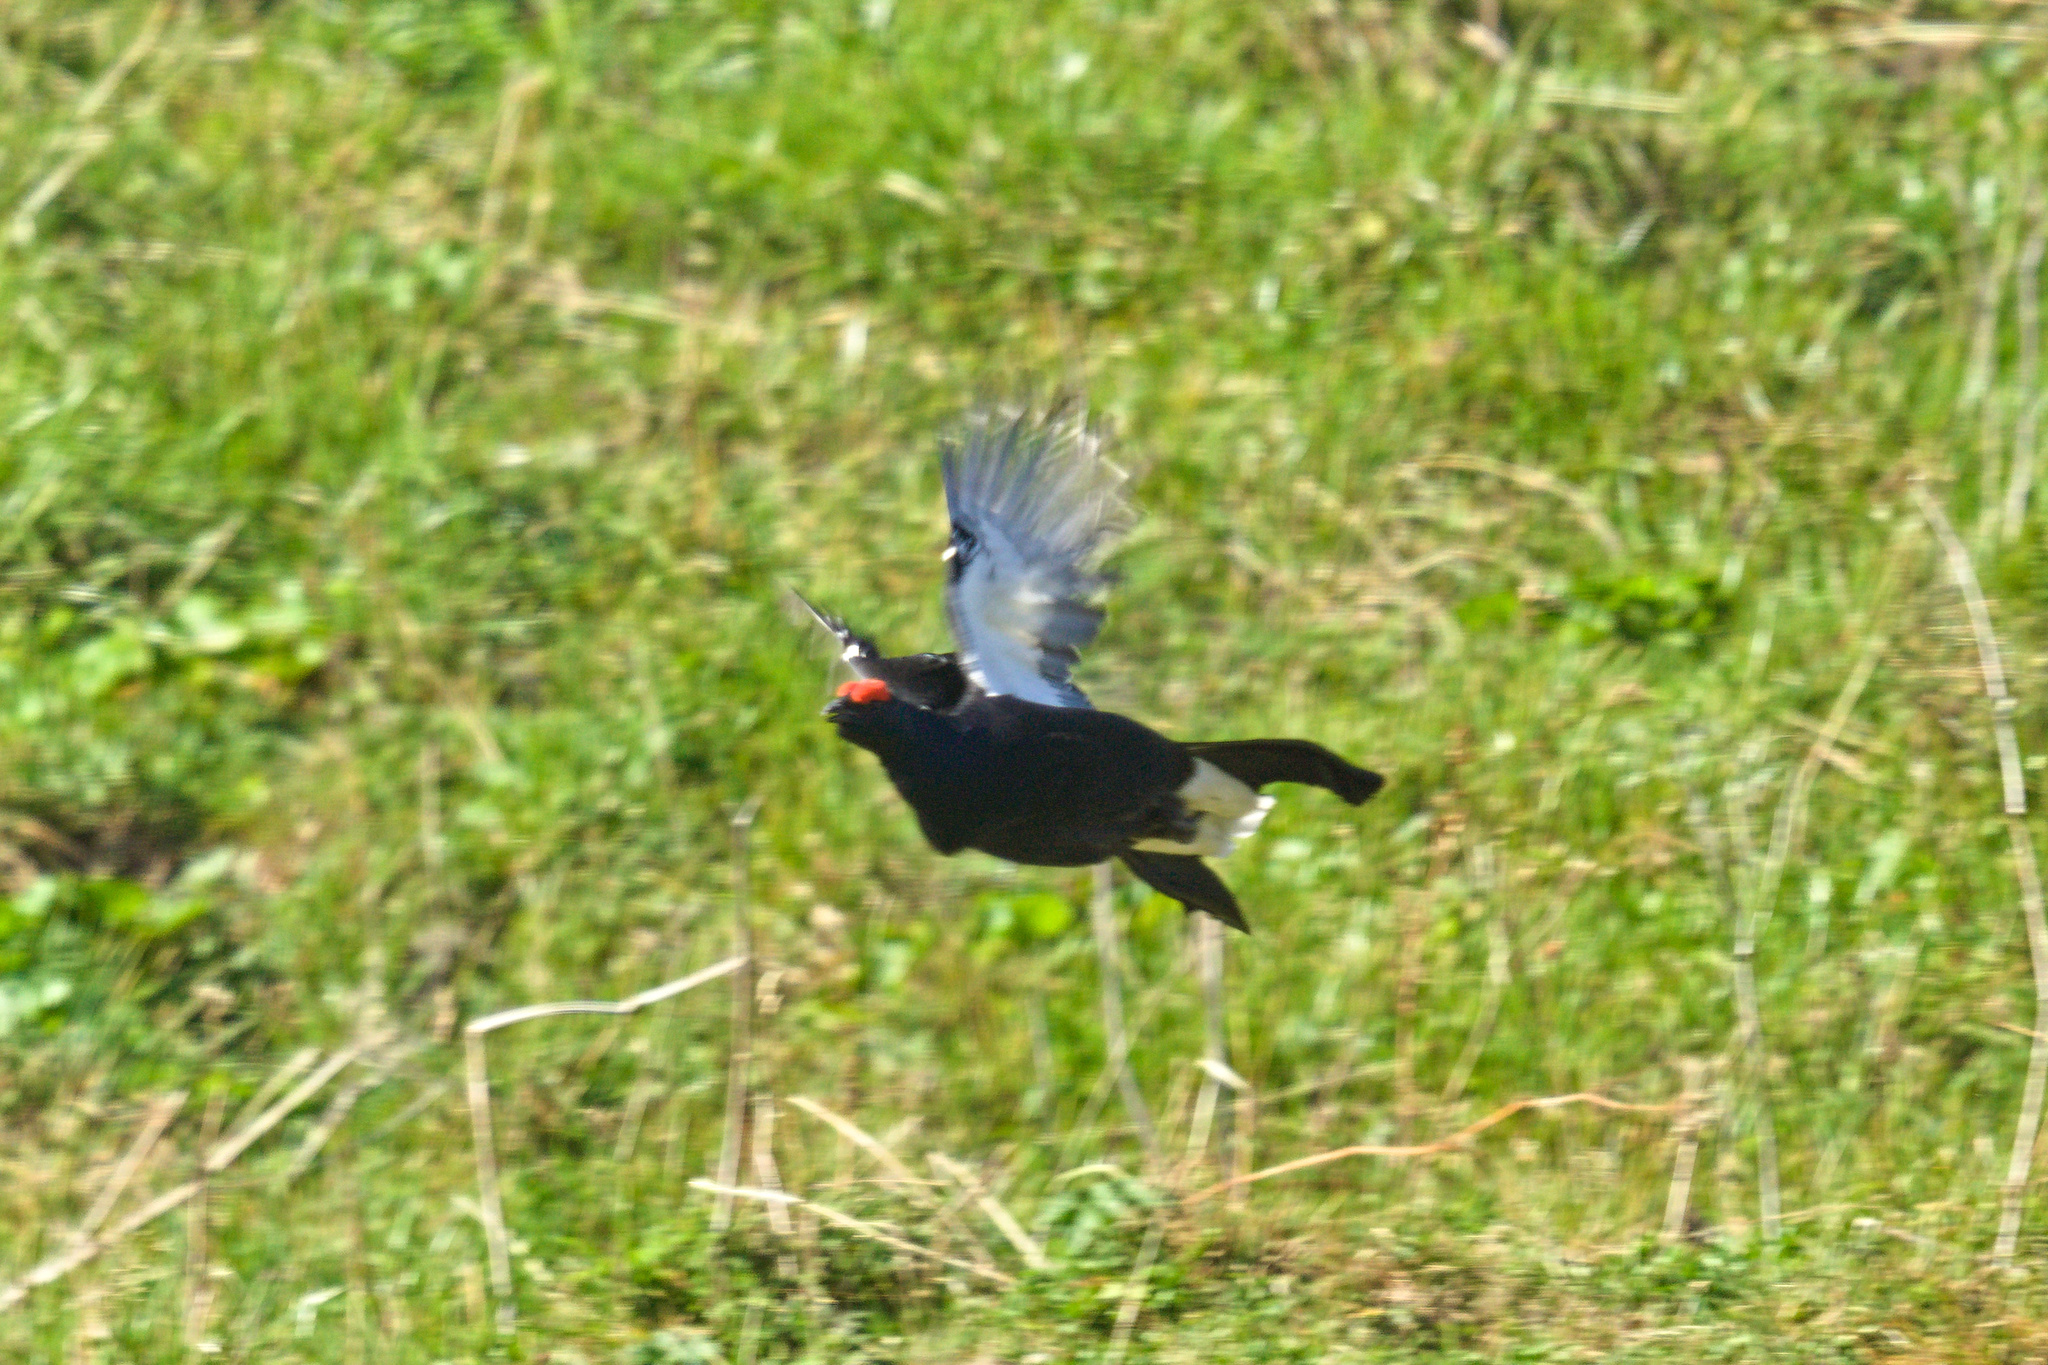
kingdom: Animalia
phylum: Chordata
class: Aves
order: Galliformes
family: Phasianidae
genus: Lyrurus
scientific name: Lyrurus tetrix
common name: Black grouse
